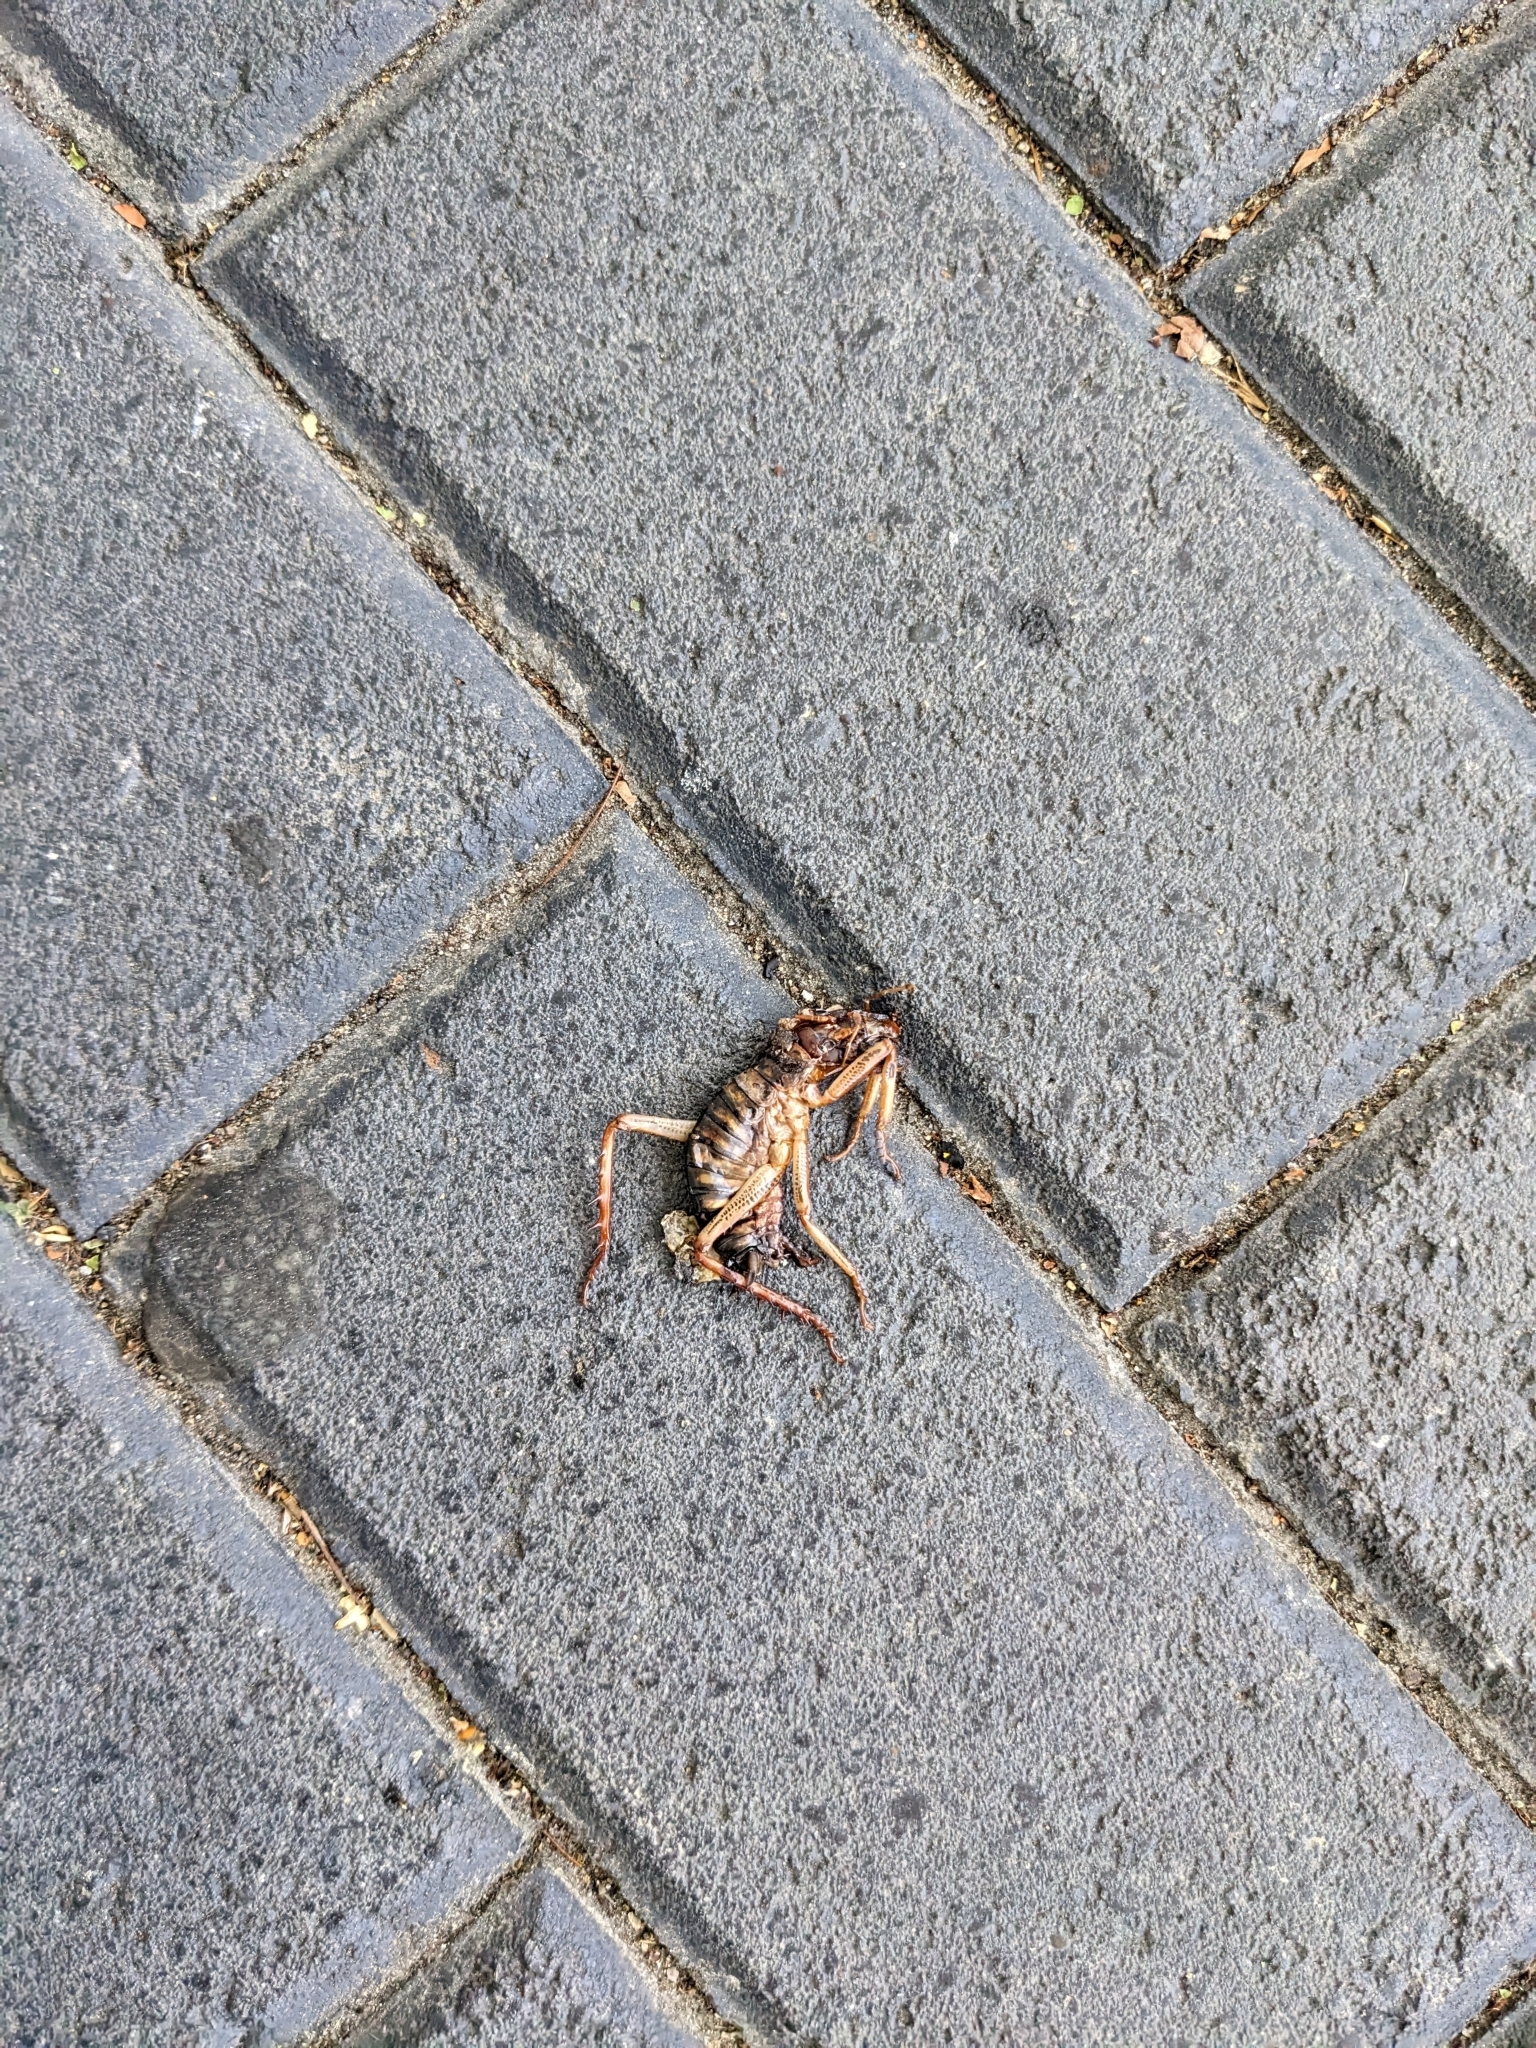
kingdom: Animalia
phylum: Arthropoda
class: Insecta
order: Orthoptera
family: Anostostomatidae
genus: Hemideina
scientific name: Hemideina crassidens
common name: Wellington tree weta
